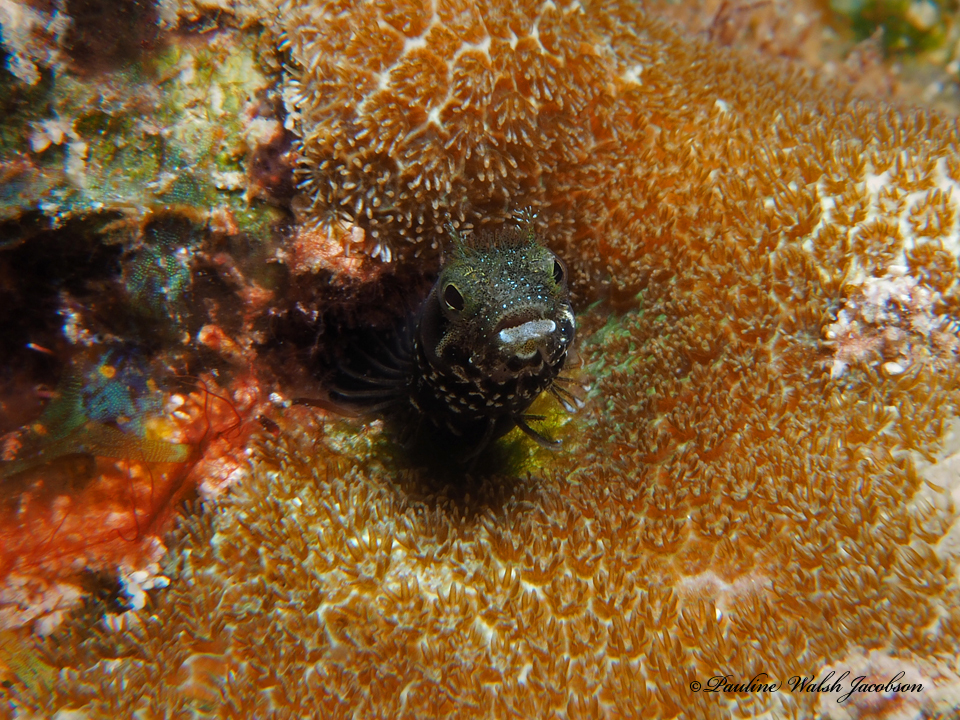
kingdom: Animalia
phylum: Chordata
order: Perciformes
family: Chaenopsidae
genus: Acanthemblemaria
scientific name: Acanthemblemaria spinosa
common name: Spinyhead blenny
